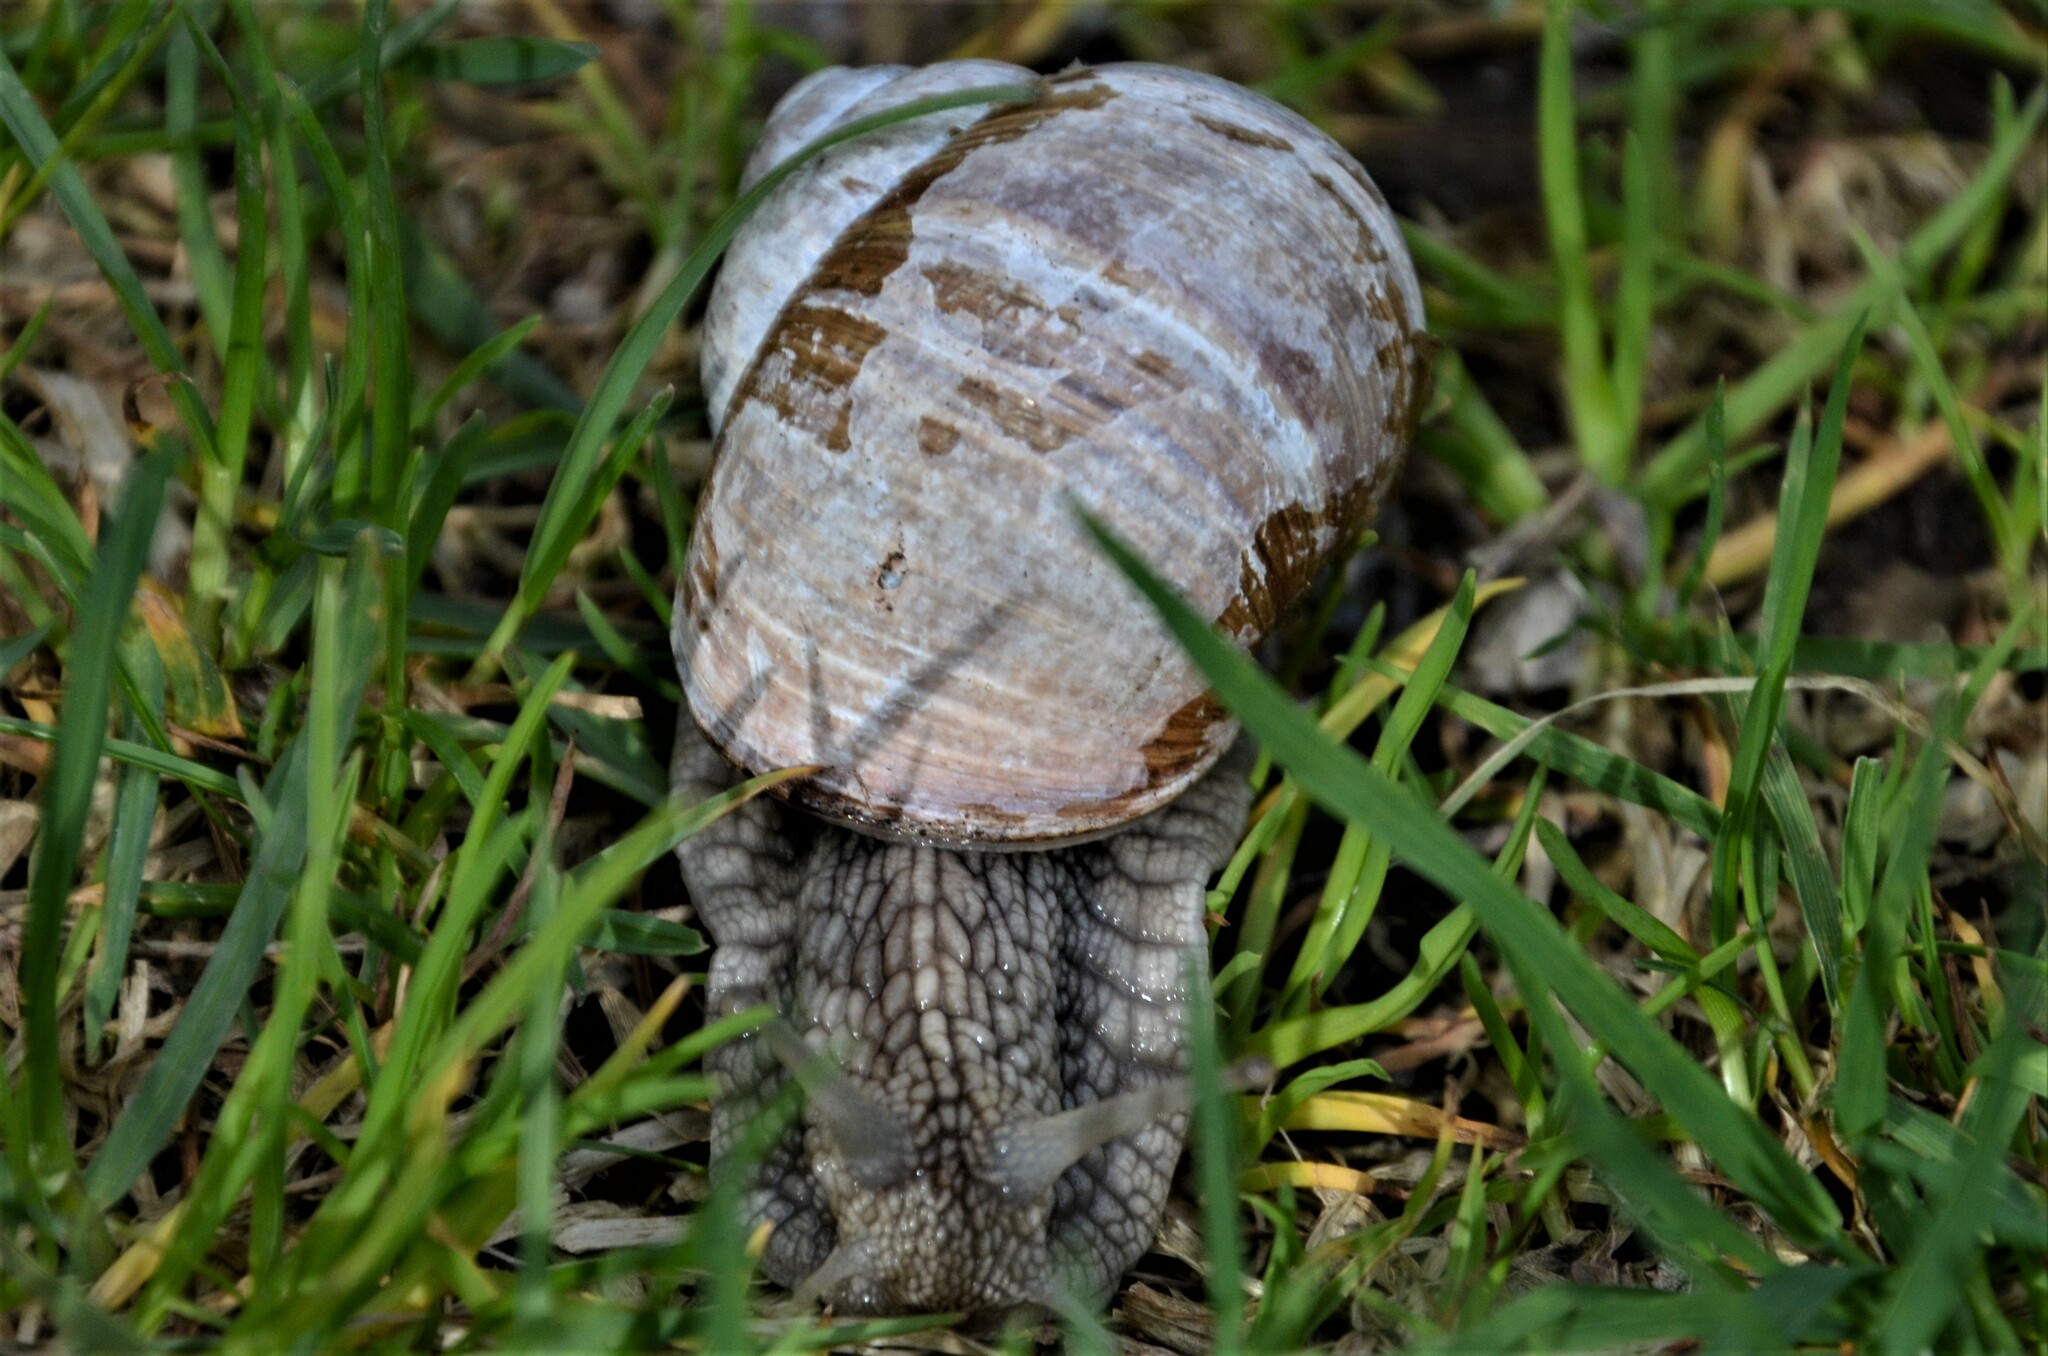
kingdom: Animalia
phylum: Mollusca
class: Gastropoda
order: Stylommatophora
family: Helicidae
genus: Helix
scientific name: Helix pomatia
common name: Roman snail
